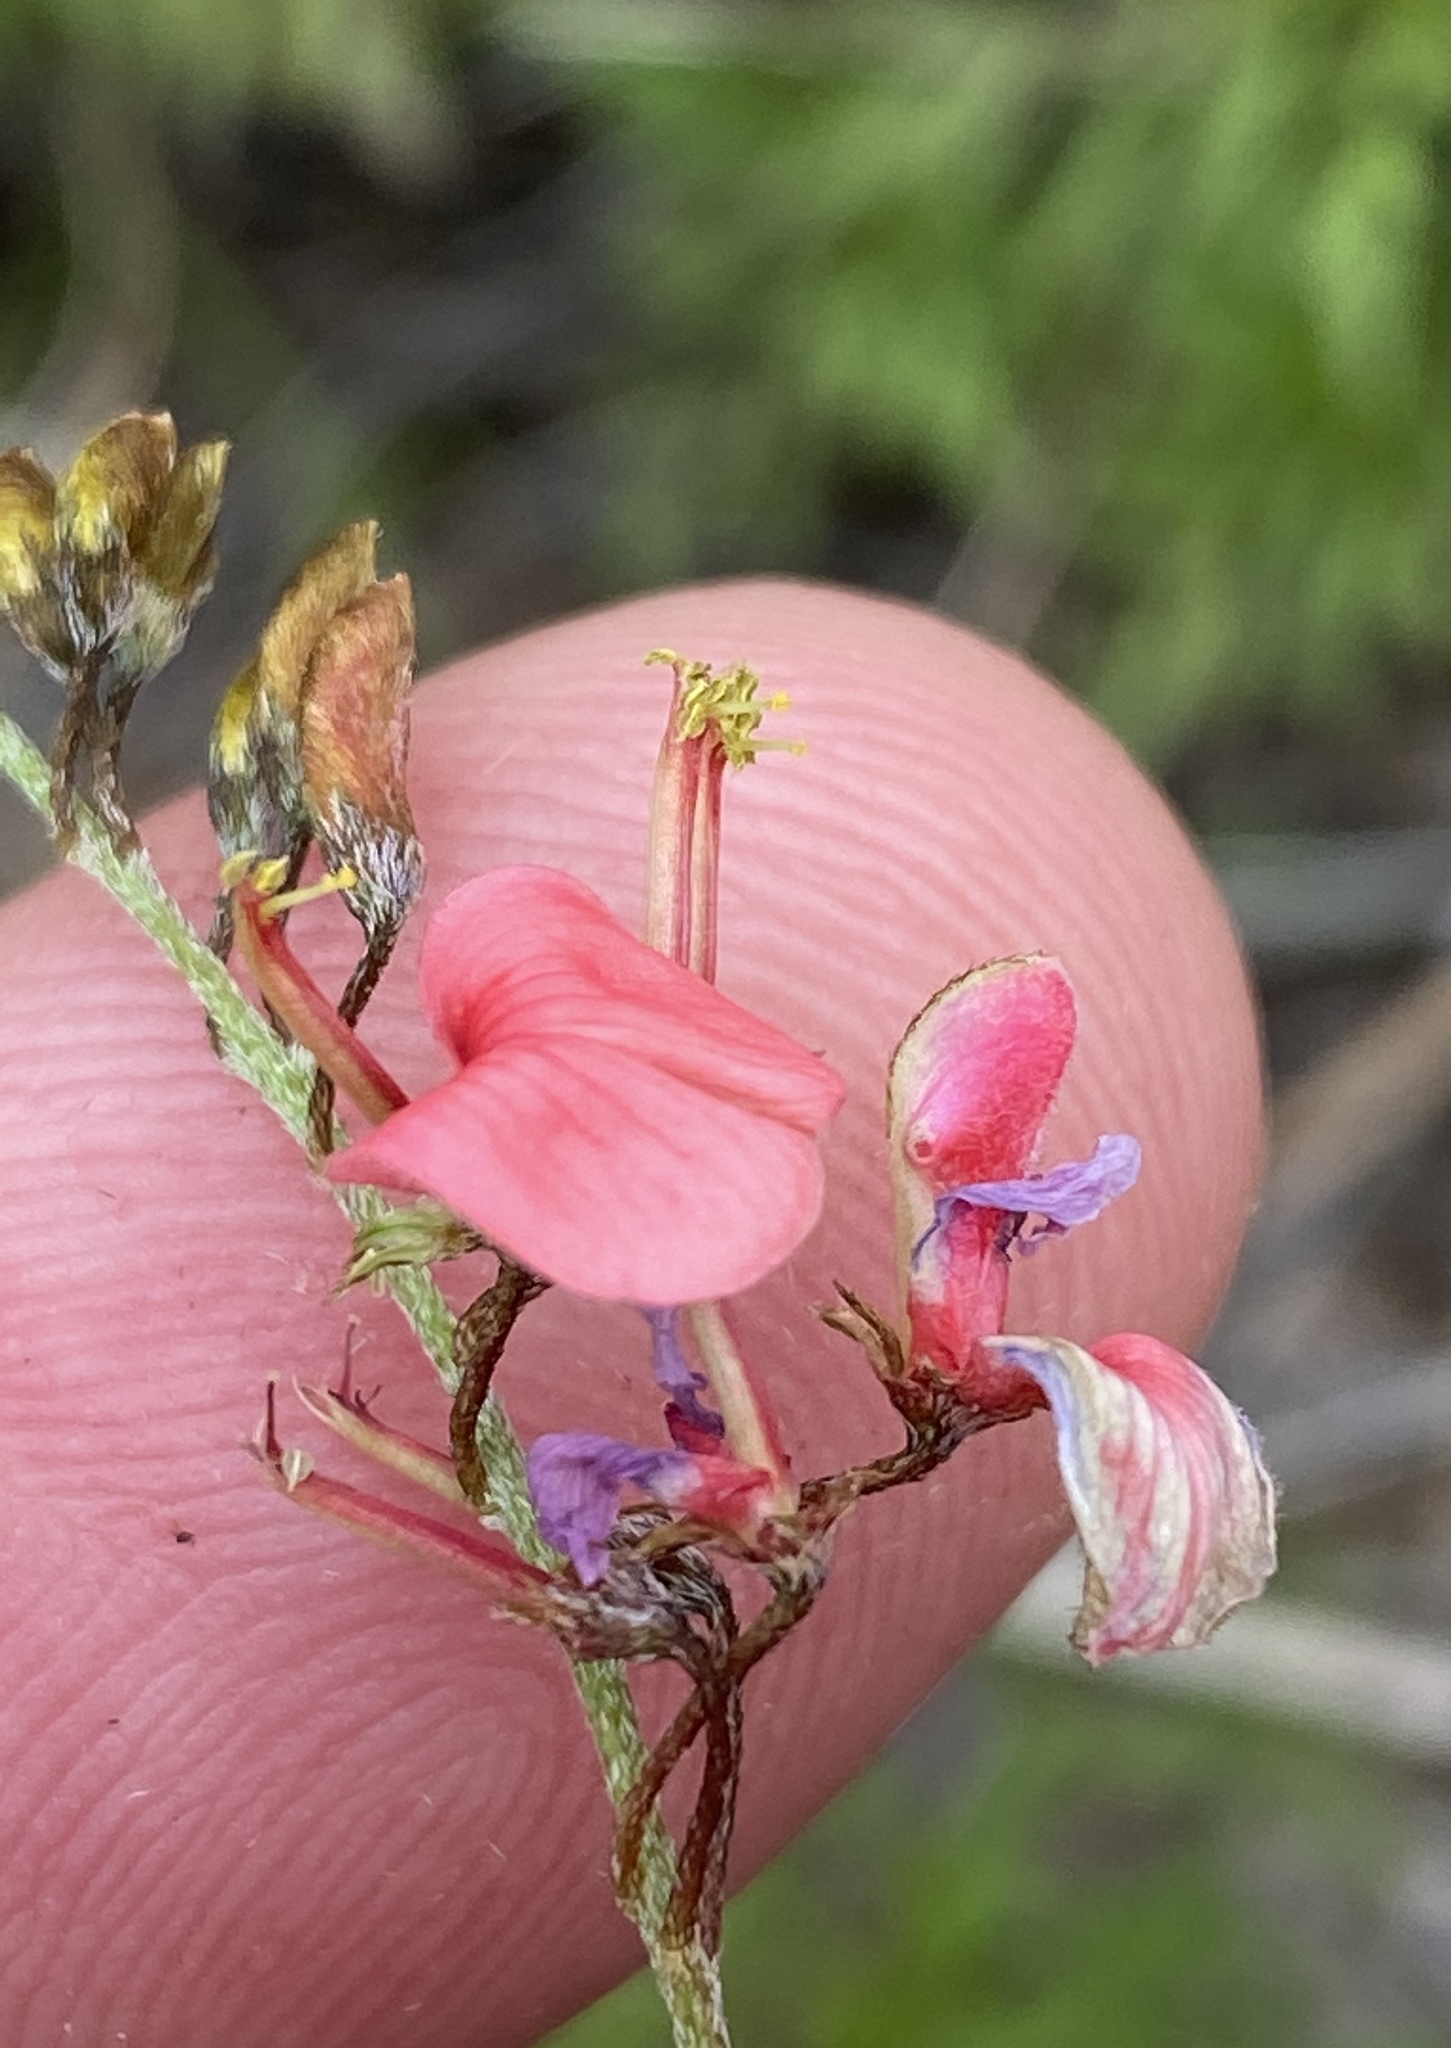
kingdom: Plantae
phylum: Tracheophyta
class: Magnoliopsida
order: Fabales
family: Fabaceae
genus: Indigofera
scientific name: Indigofera punctata
